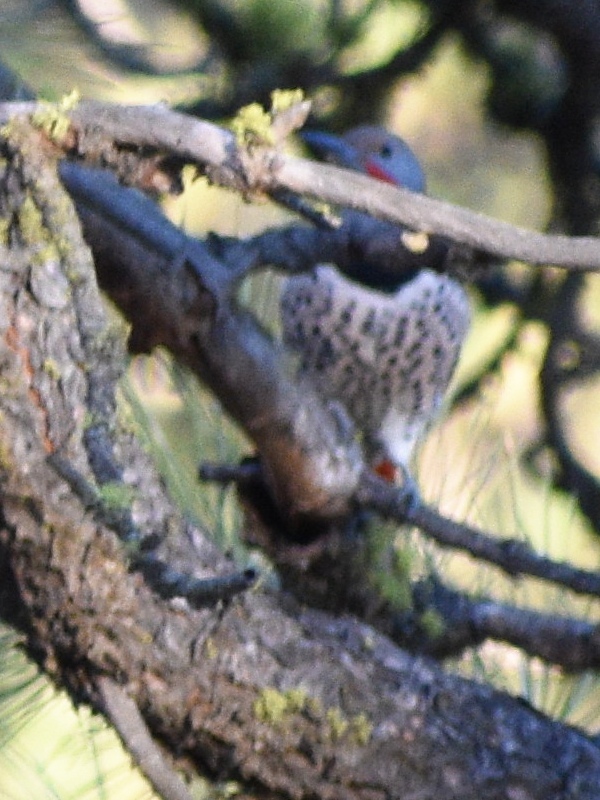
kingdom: Animalia
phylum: Chordata
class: Aves
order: Piciformes
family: Picidae
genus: Colaptes
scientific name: Colaptes auratus
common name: Northern flicker
